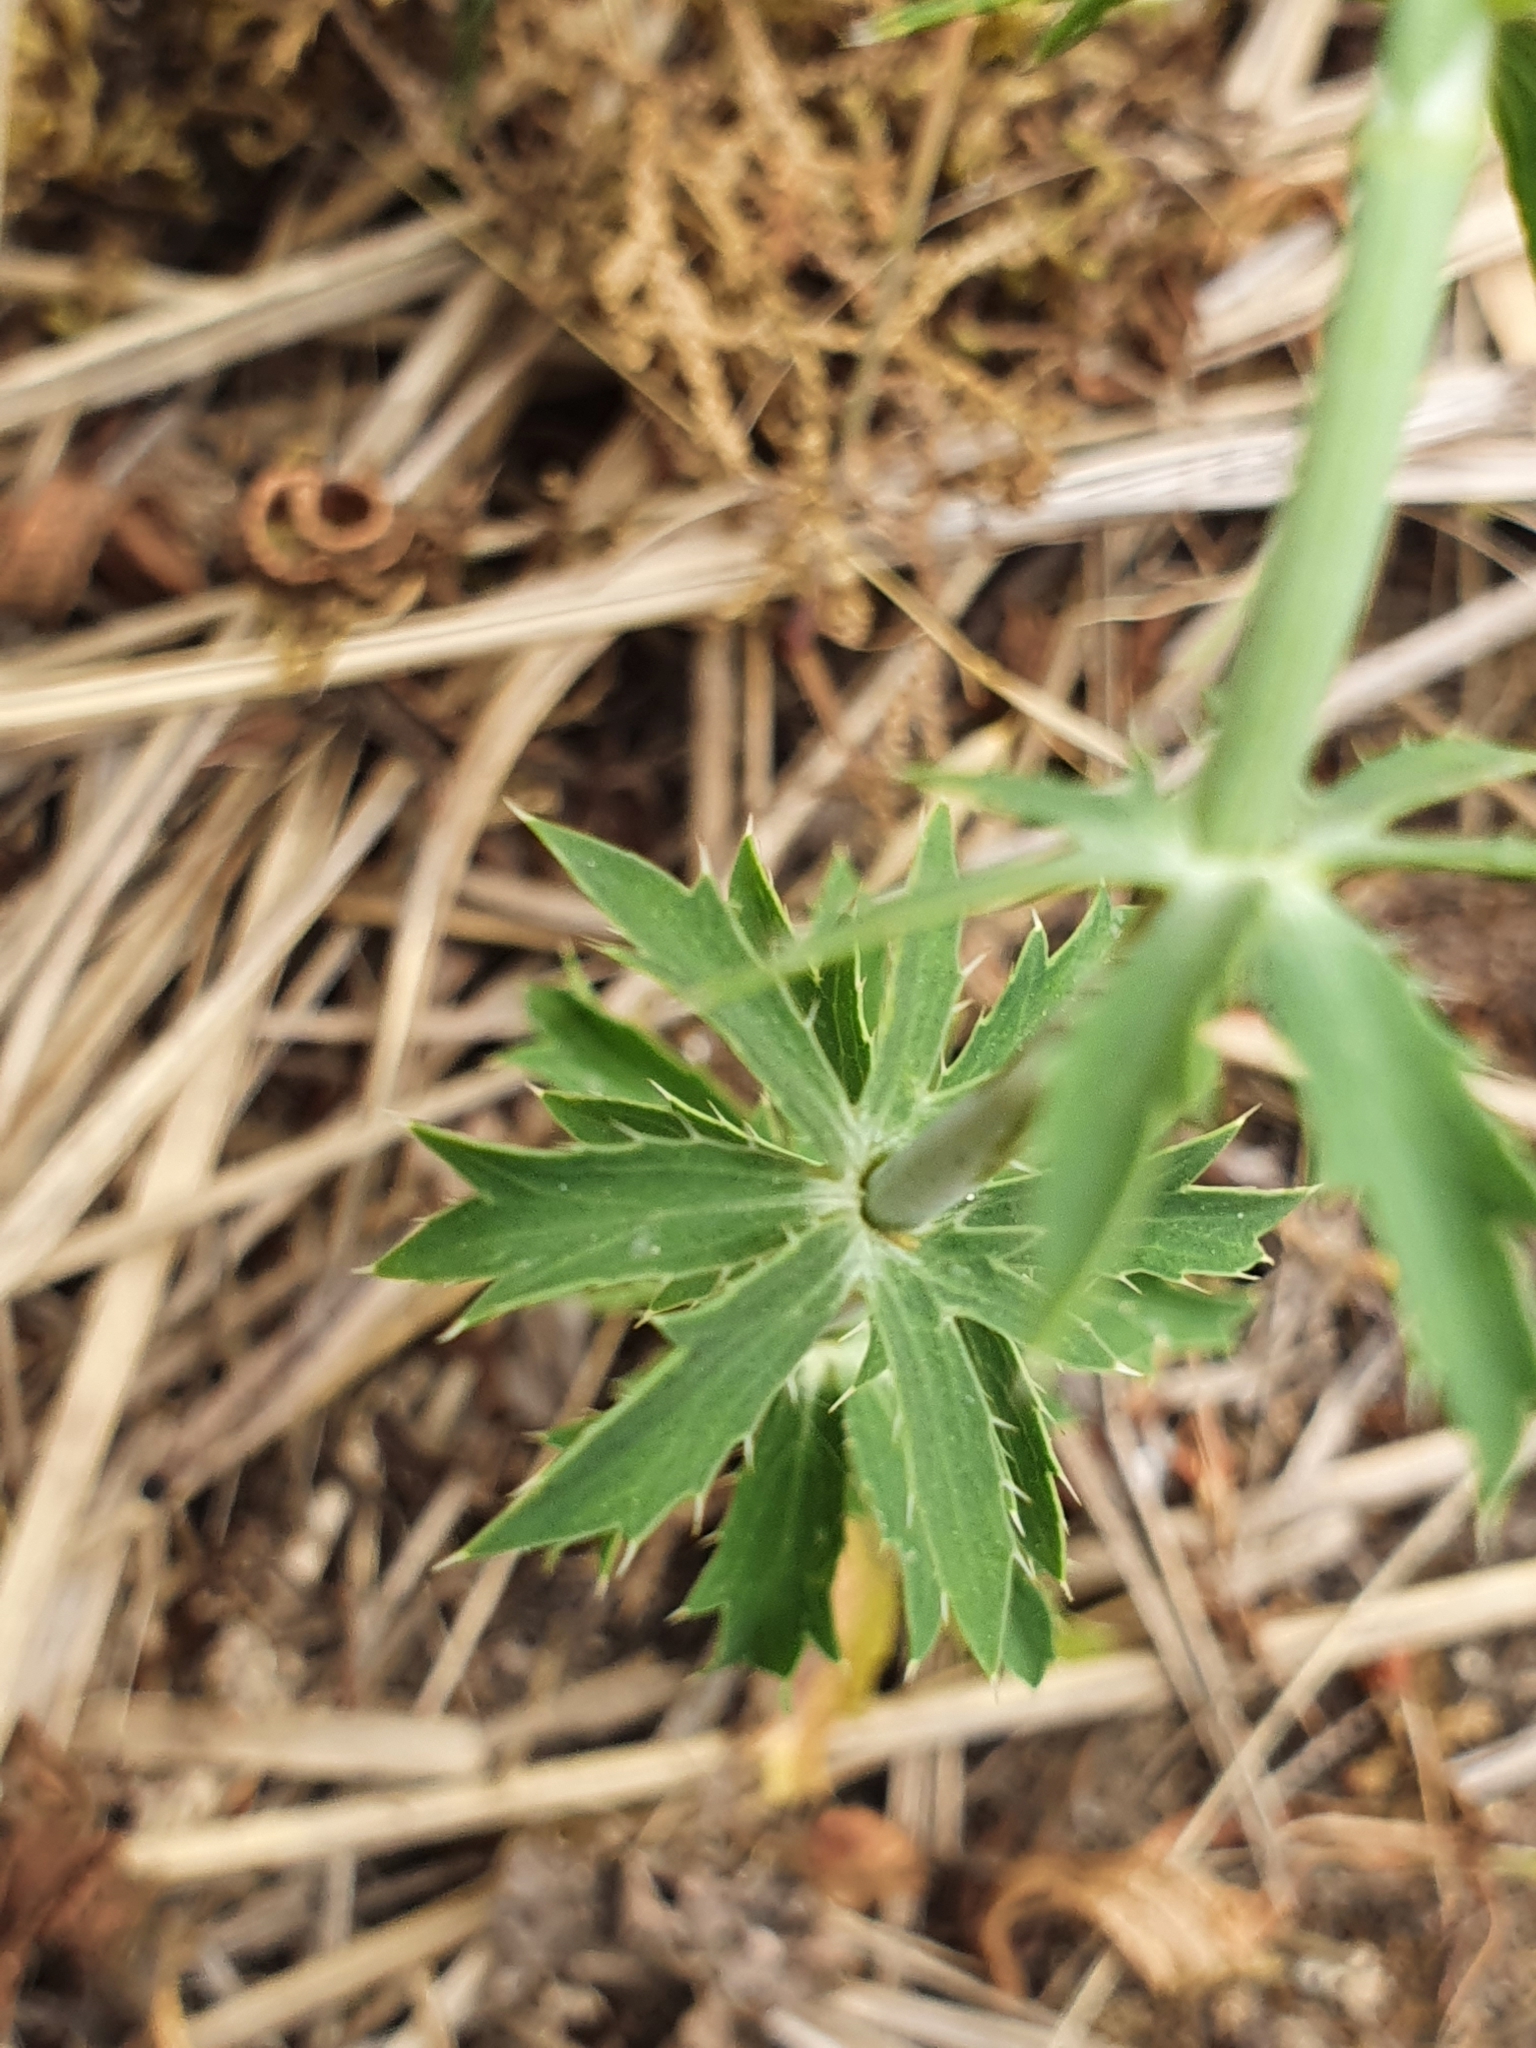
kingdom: Plantae
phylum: Tracheophyta
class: Magnoliopsida
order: Apiales
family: Apiaceae
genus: Eryngium
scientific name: Eryngium tricuspidatum
